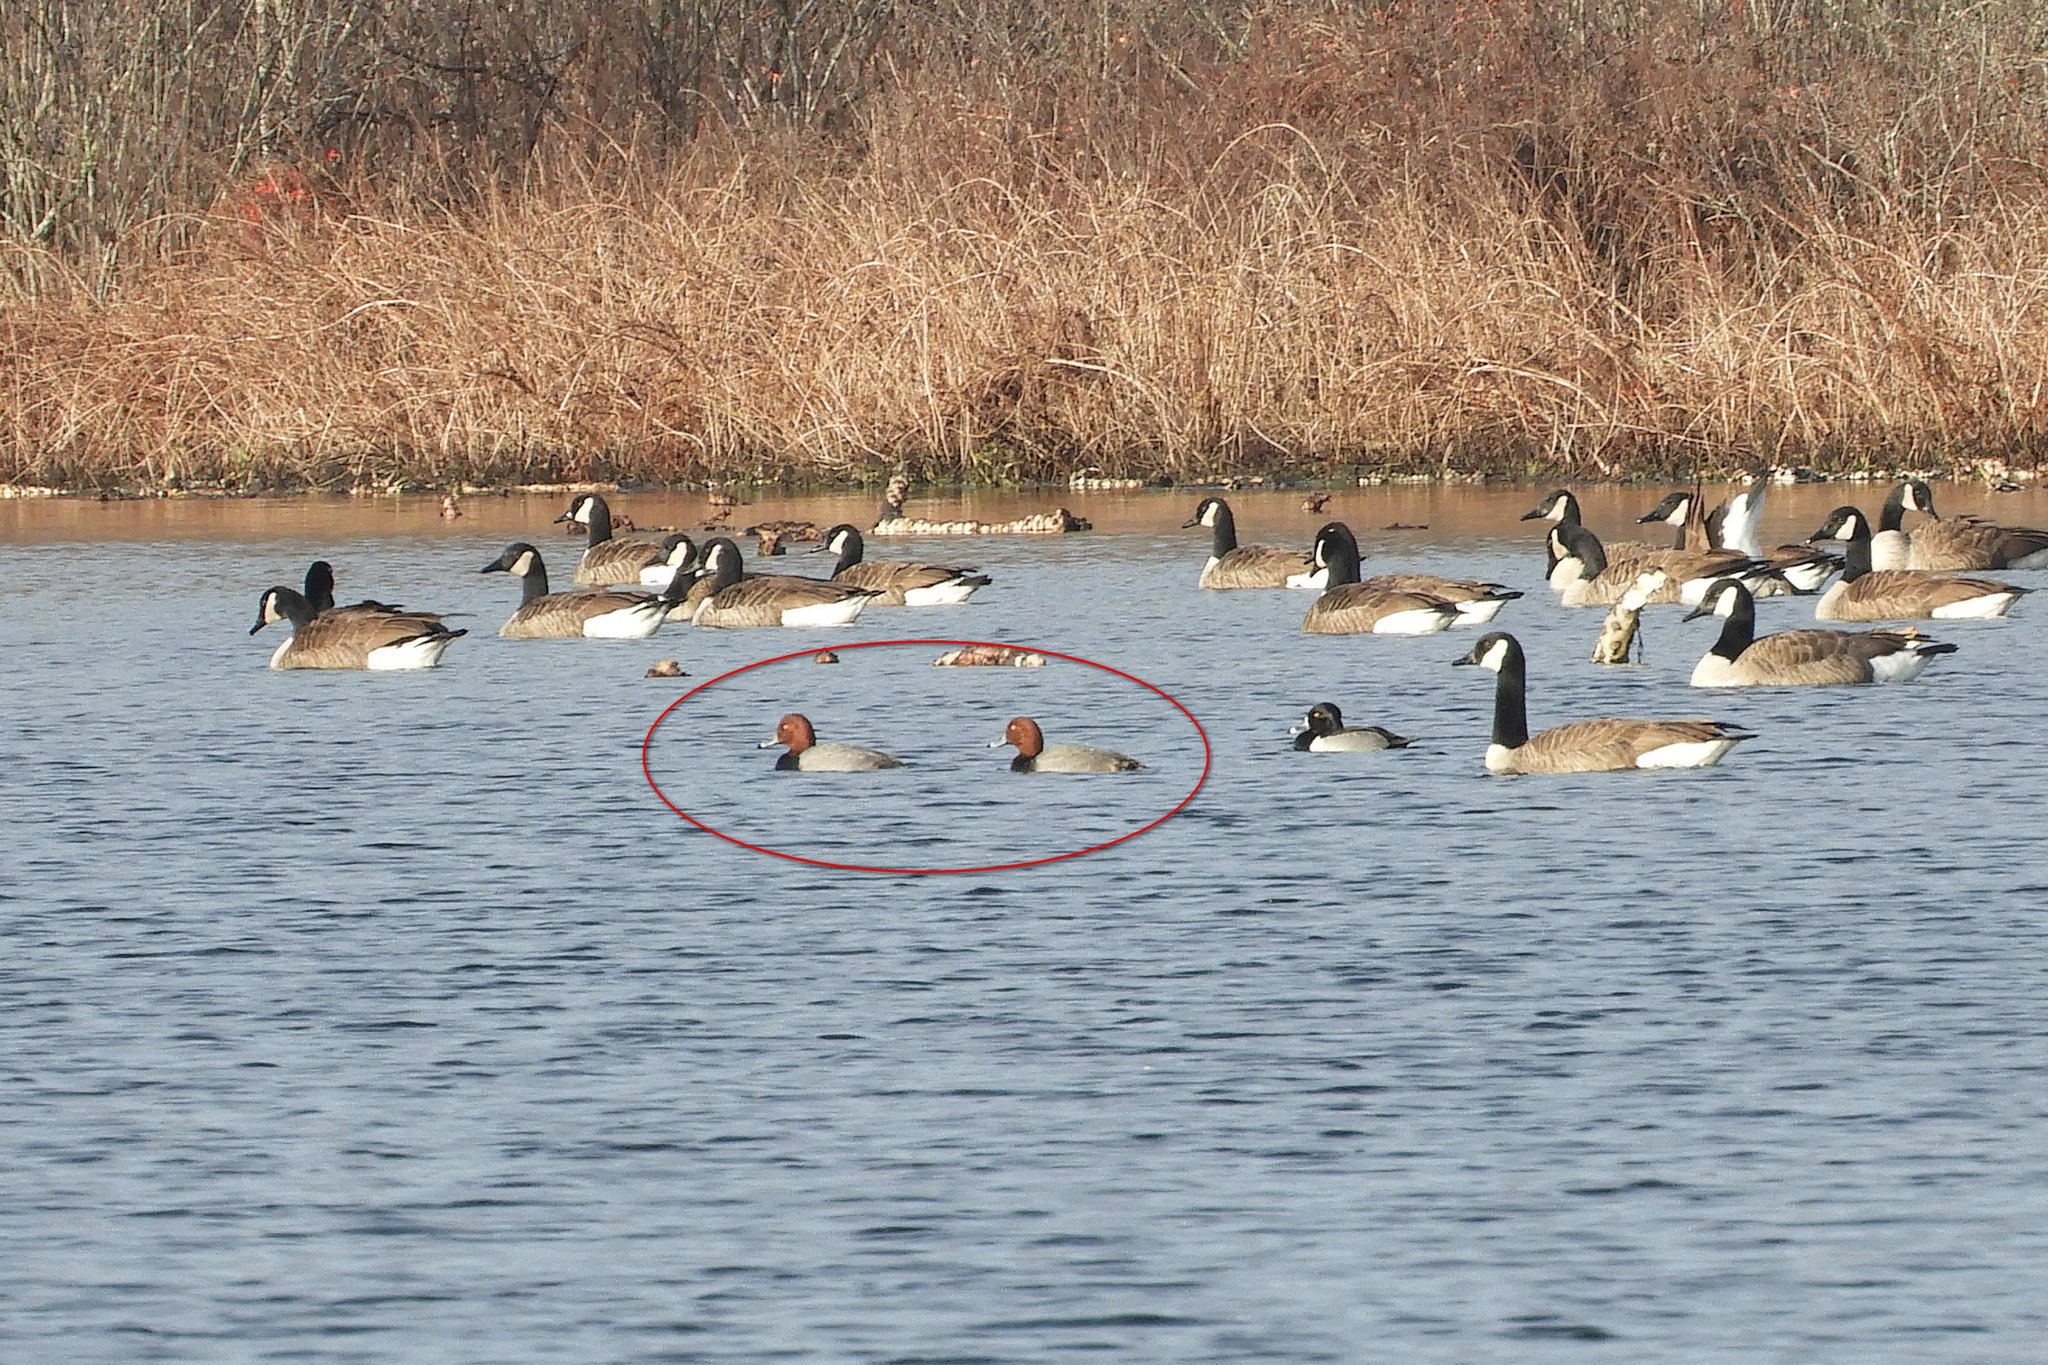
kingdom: Animalia
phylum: Chordata
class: Aves
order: Anseriformes
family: Anatidae
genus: Aythya
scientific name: Aythya americana
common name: Redhead
